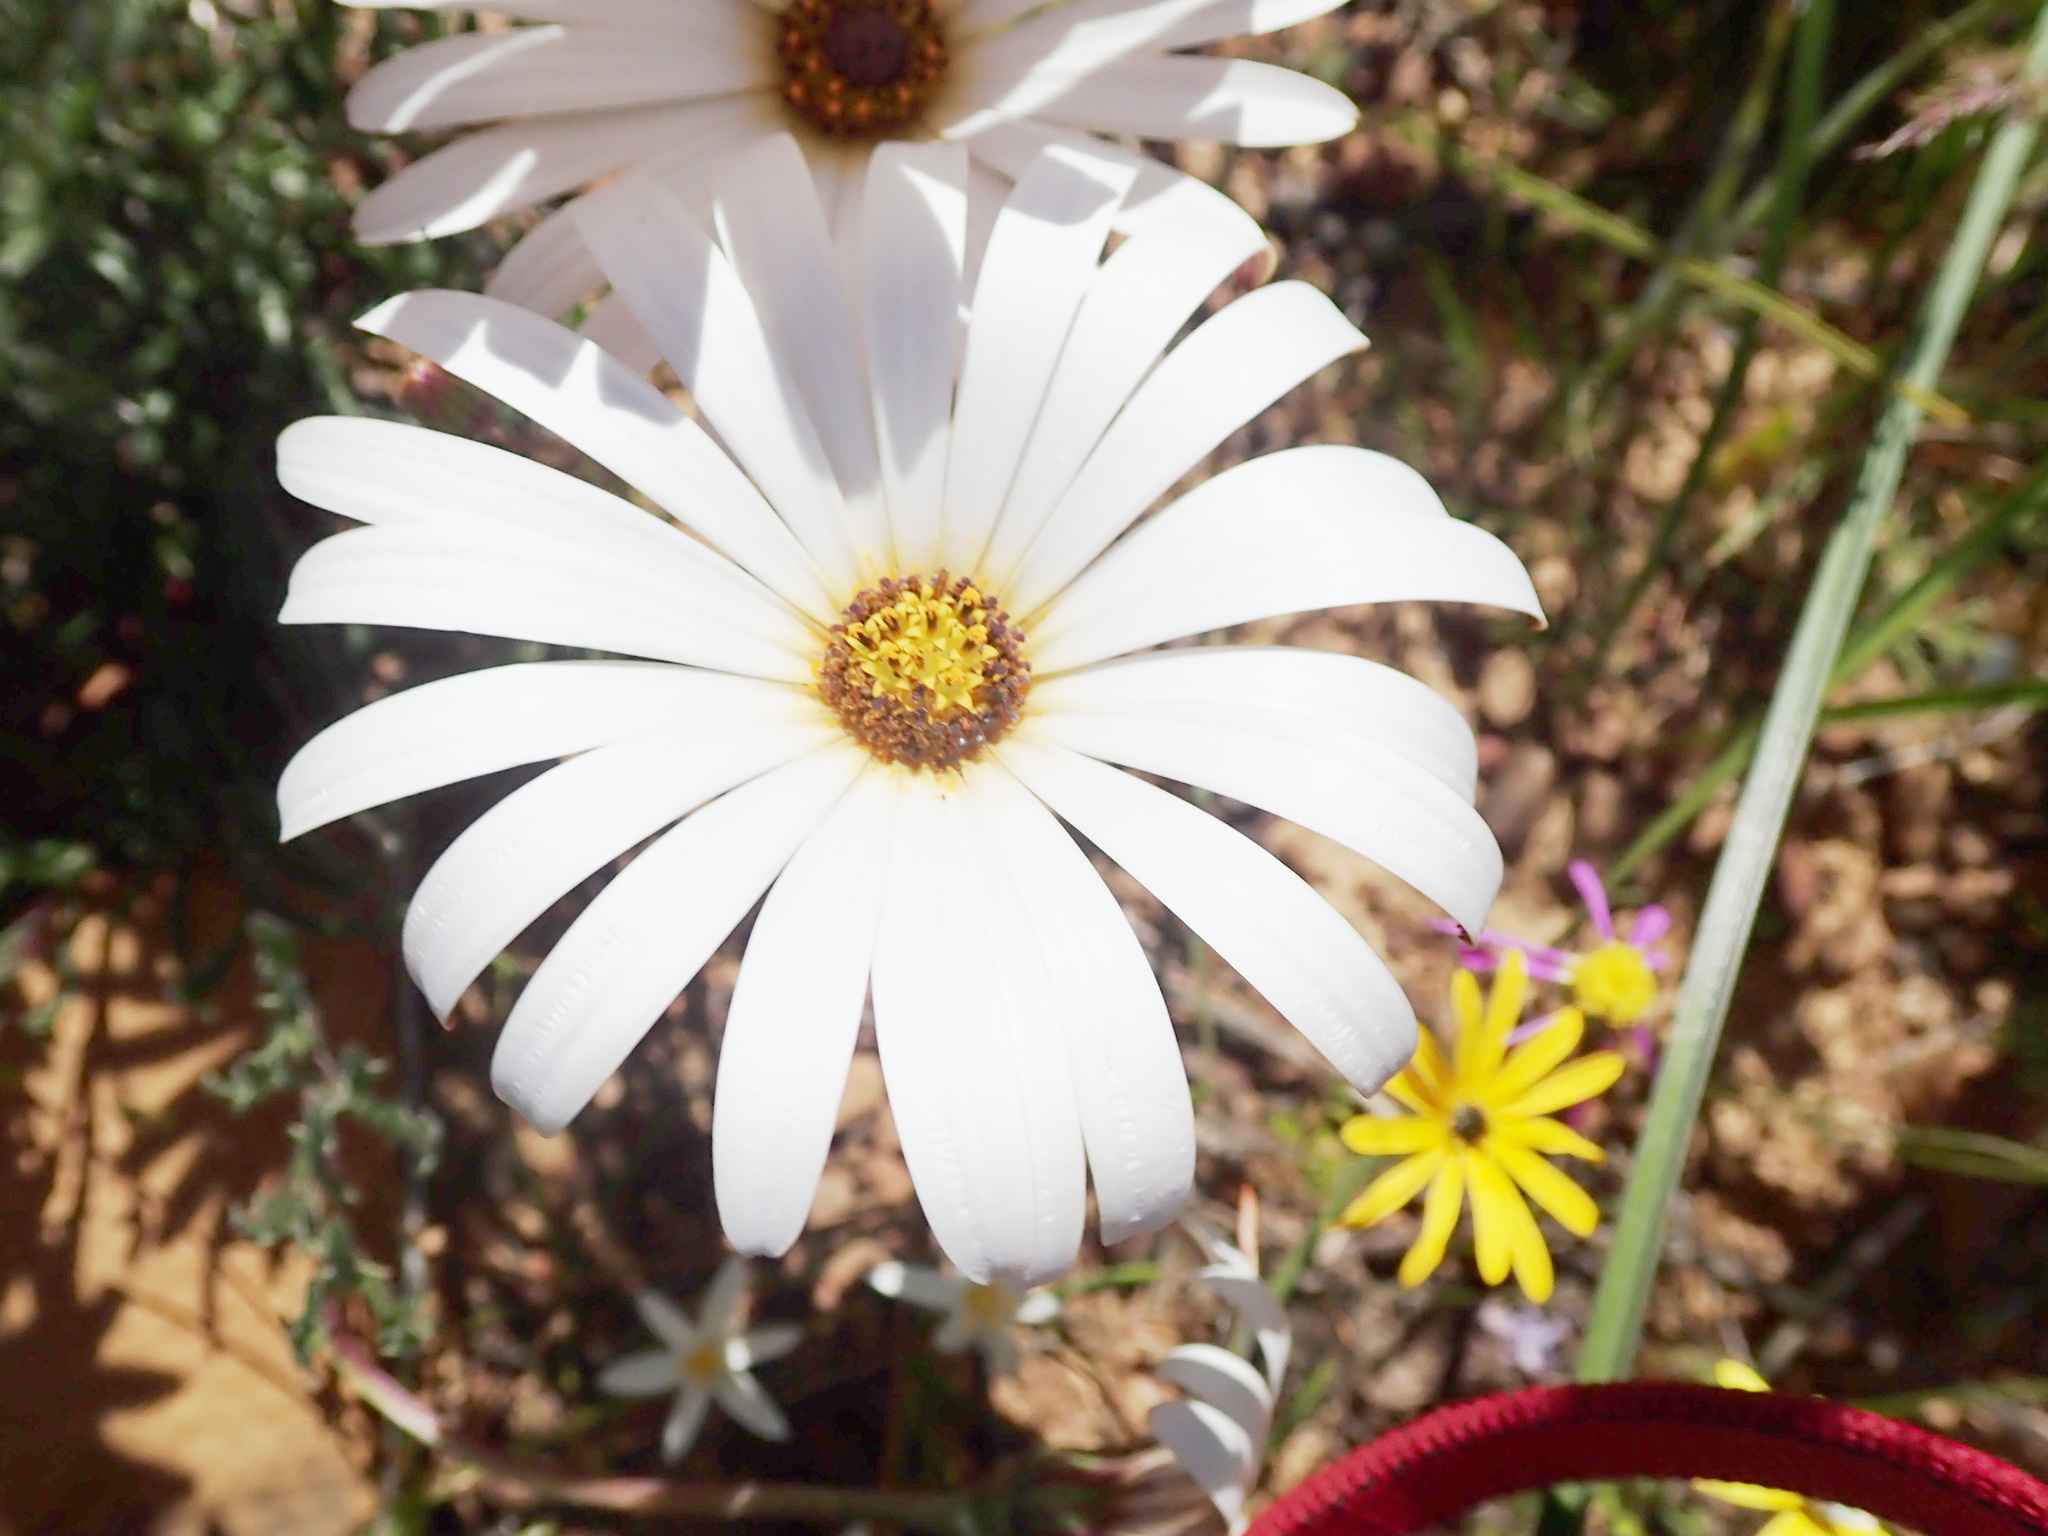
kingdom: Plantae
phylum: Tracheophyta
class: Magnoliopsida
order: Asterales
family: Asteraceae
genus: Dimorphotheca
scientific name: Dimorphotheca nudicaulis
